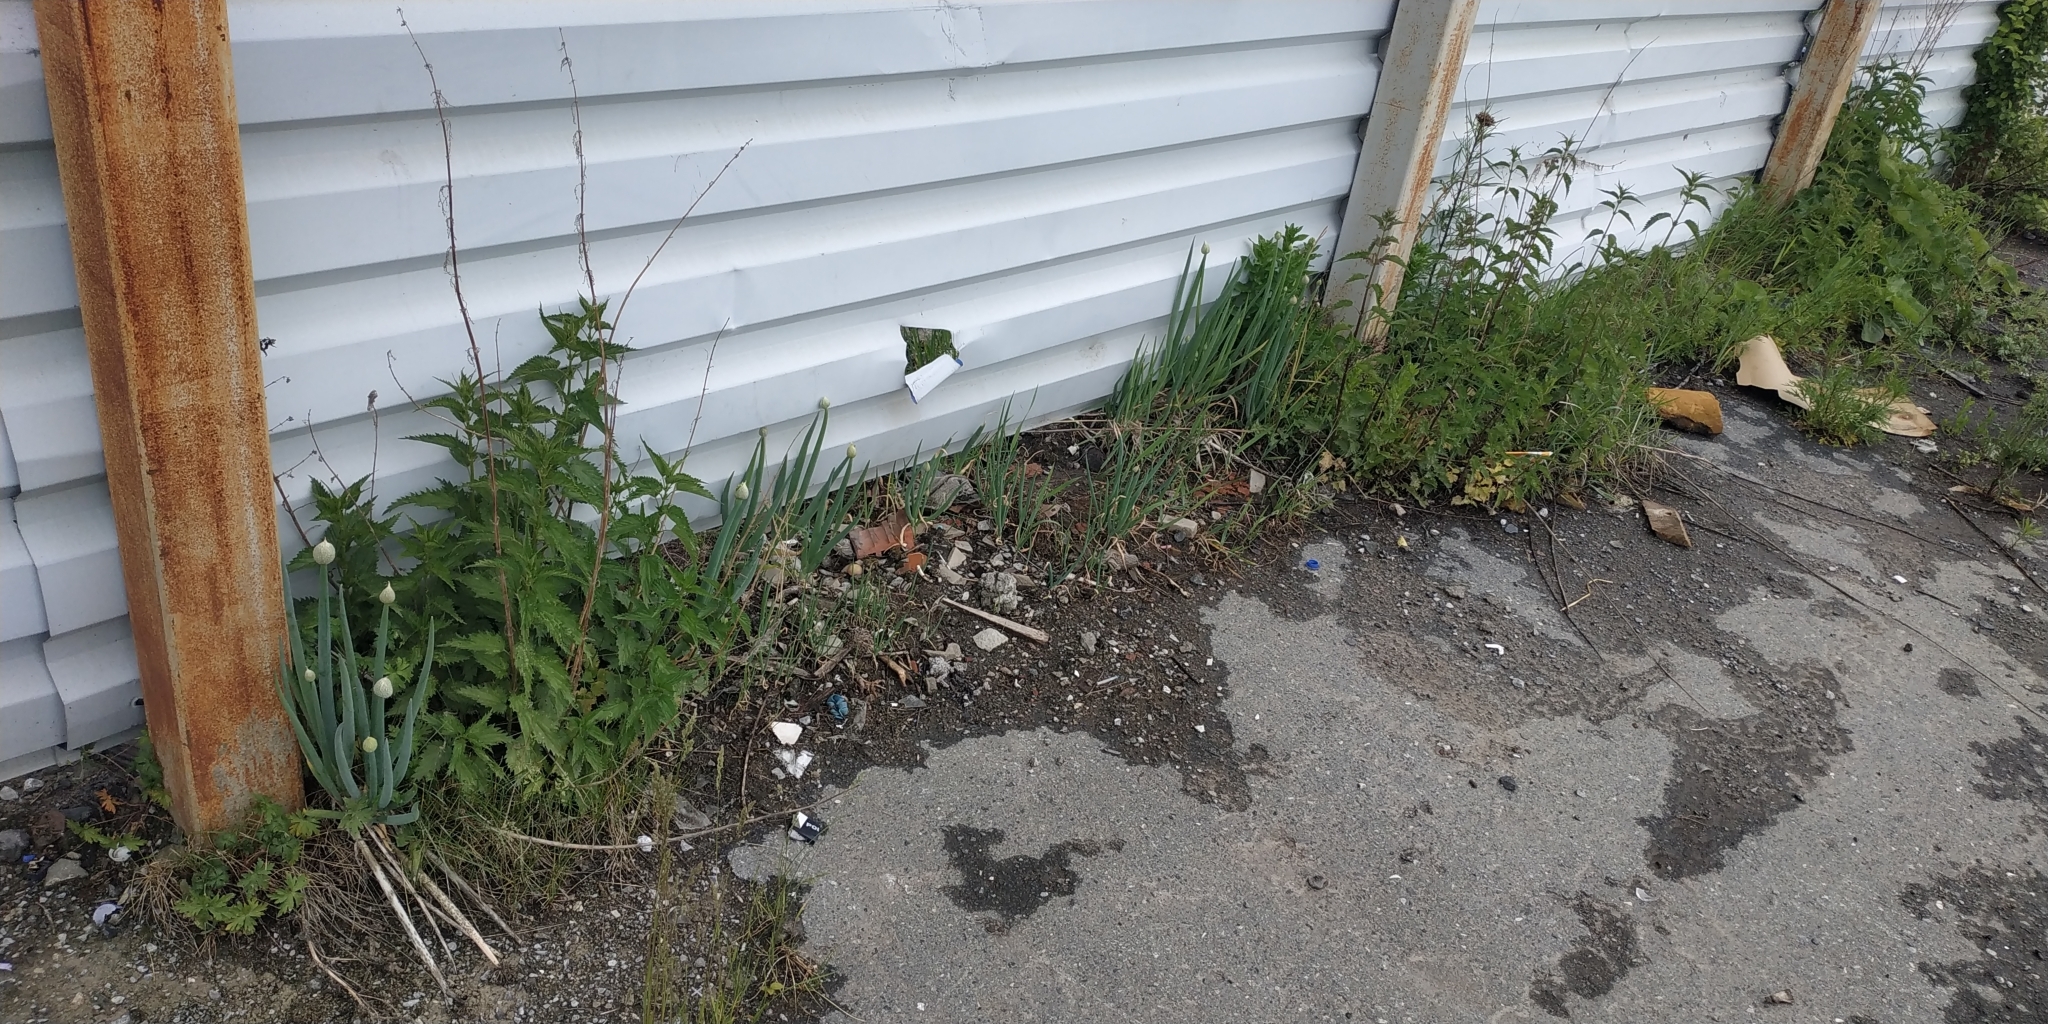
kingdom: Plantae
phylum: Tracheophyta
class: Liliopsida
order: Asparagales
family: Amaryllidaceae
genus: Allium
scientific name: Allium fistulosum
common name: Welsh onion
